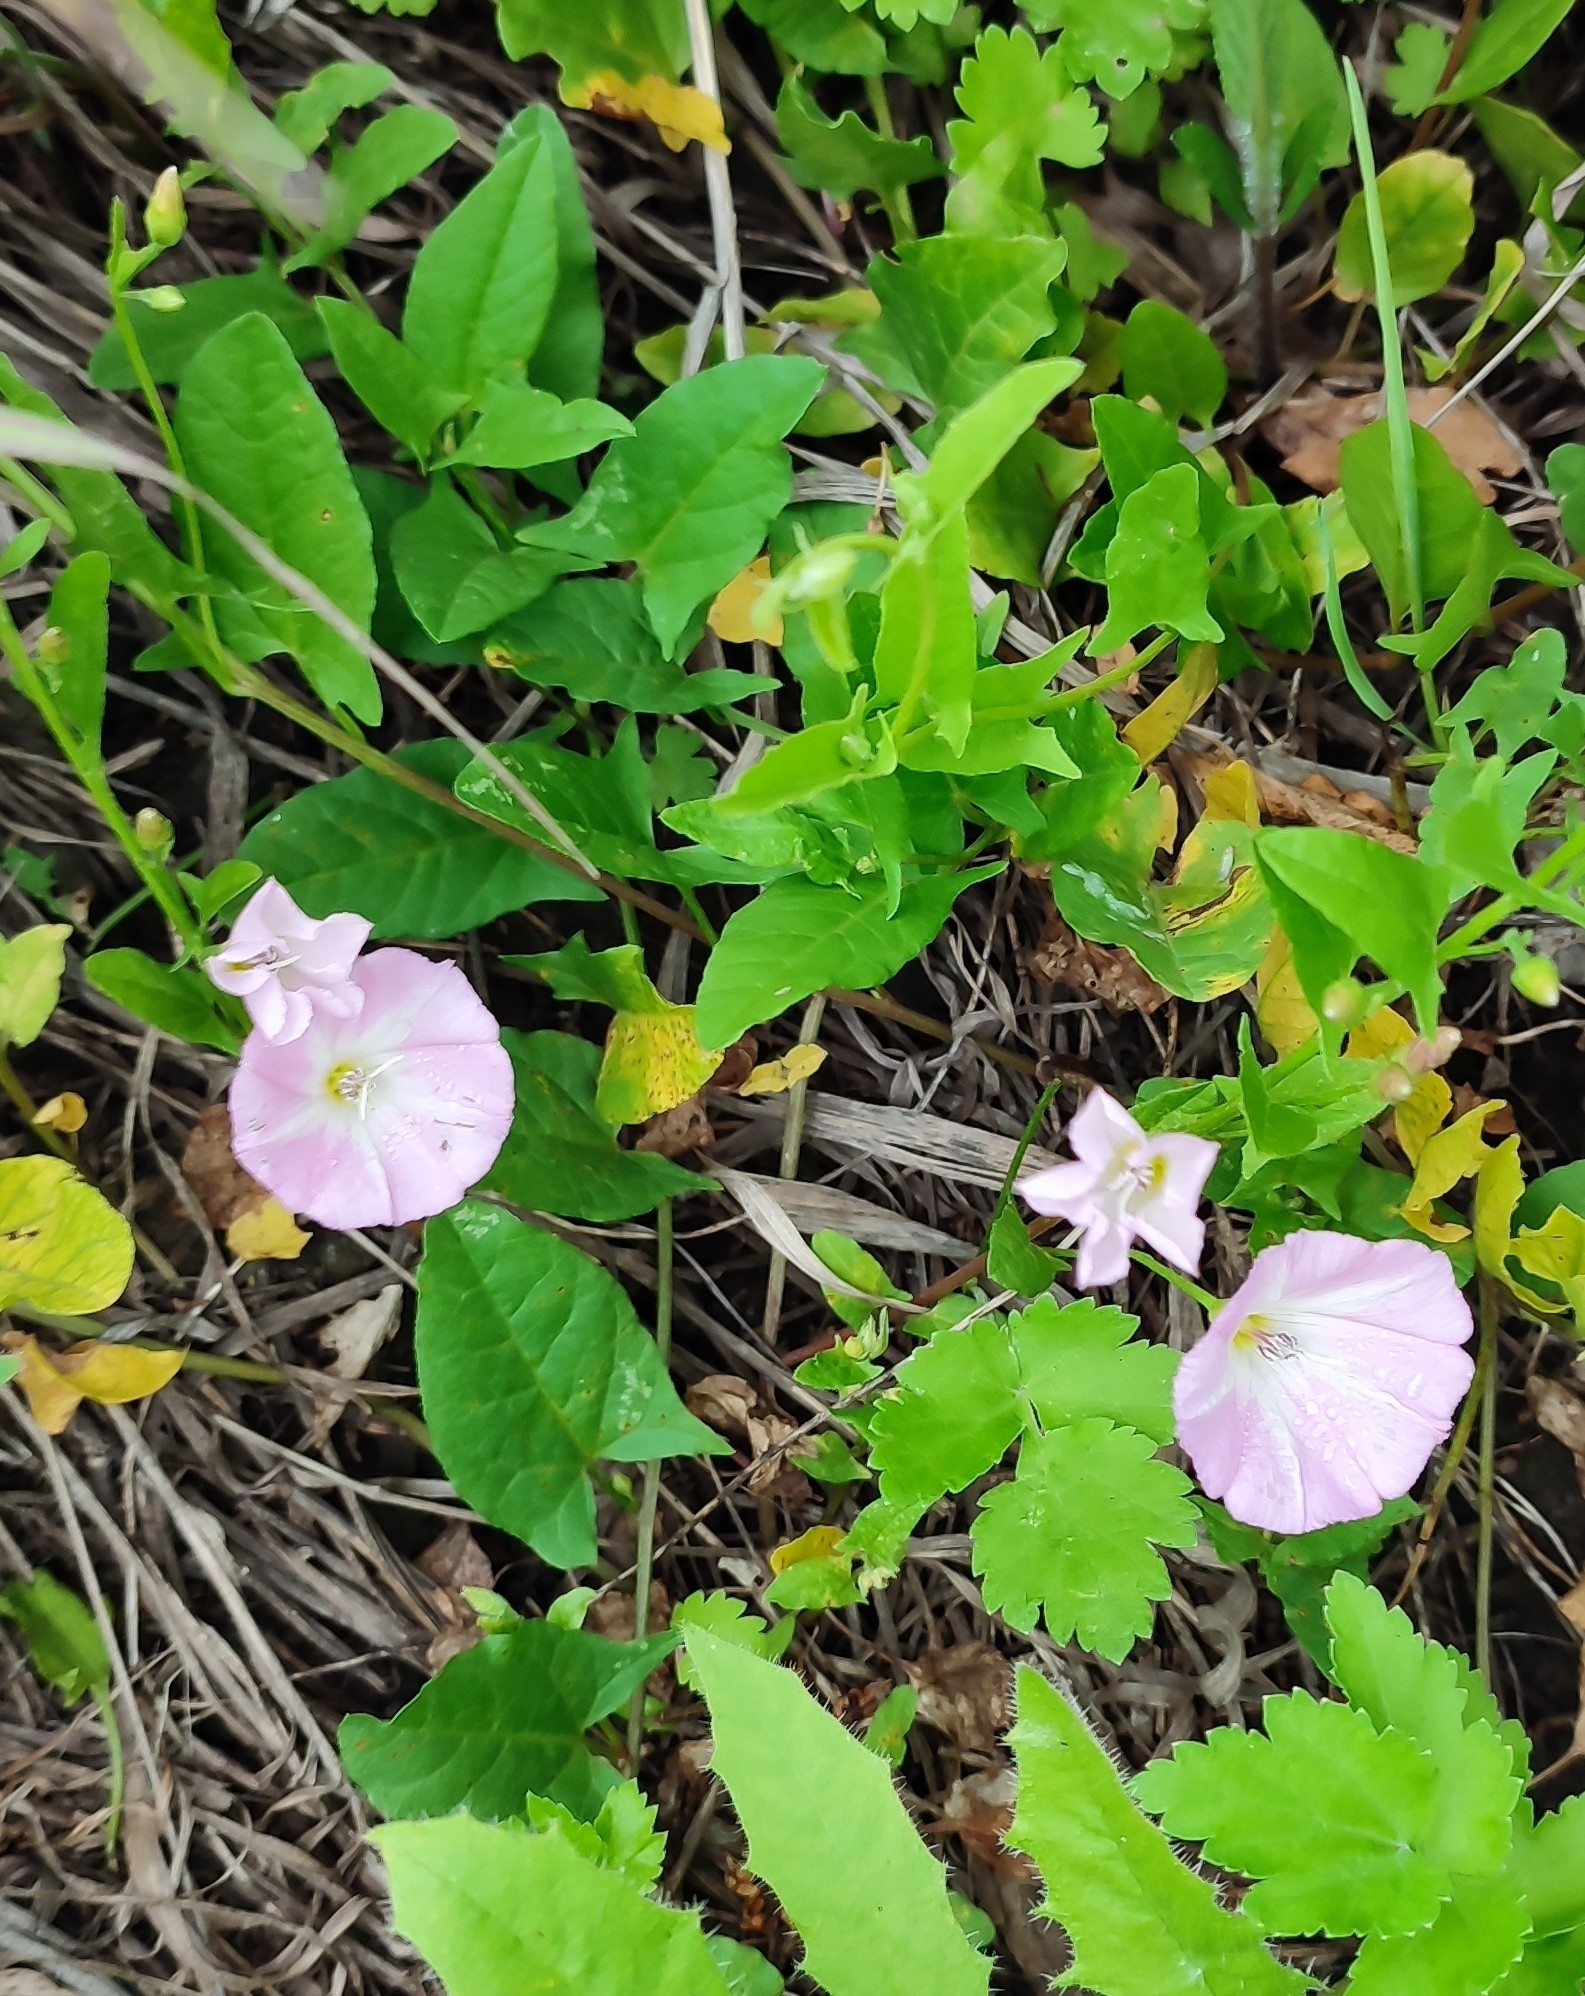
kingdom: Plantae
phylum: Tracheophyta
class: Magnoliopsida
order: Solanales
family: Convolvulaceae
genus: Convolvulus
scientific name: Convolvulus arvensis
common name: Field bindweed
